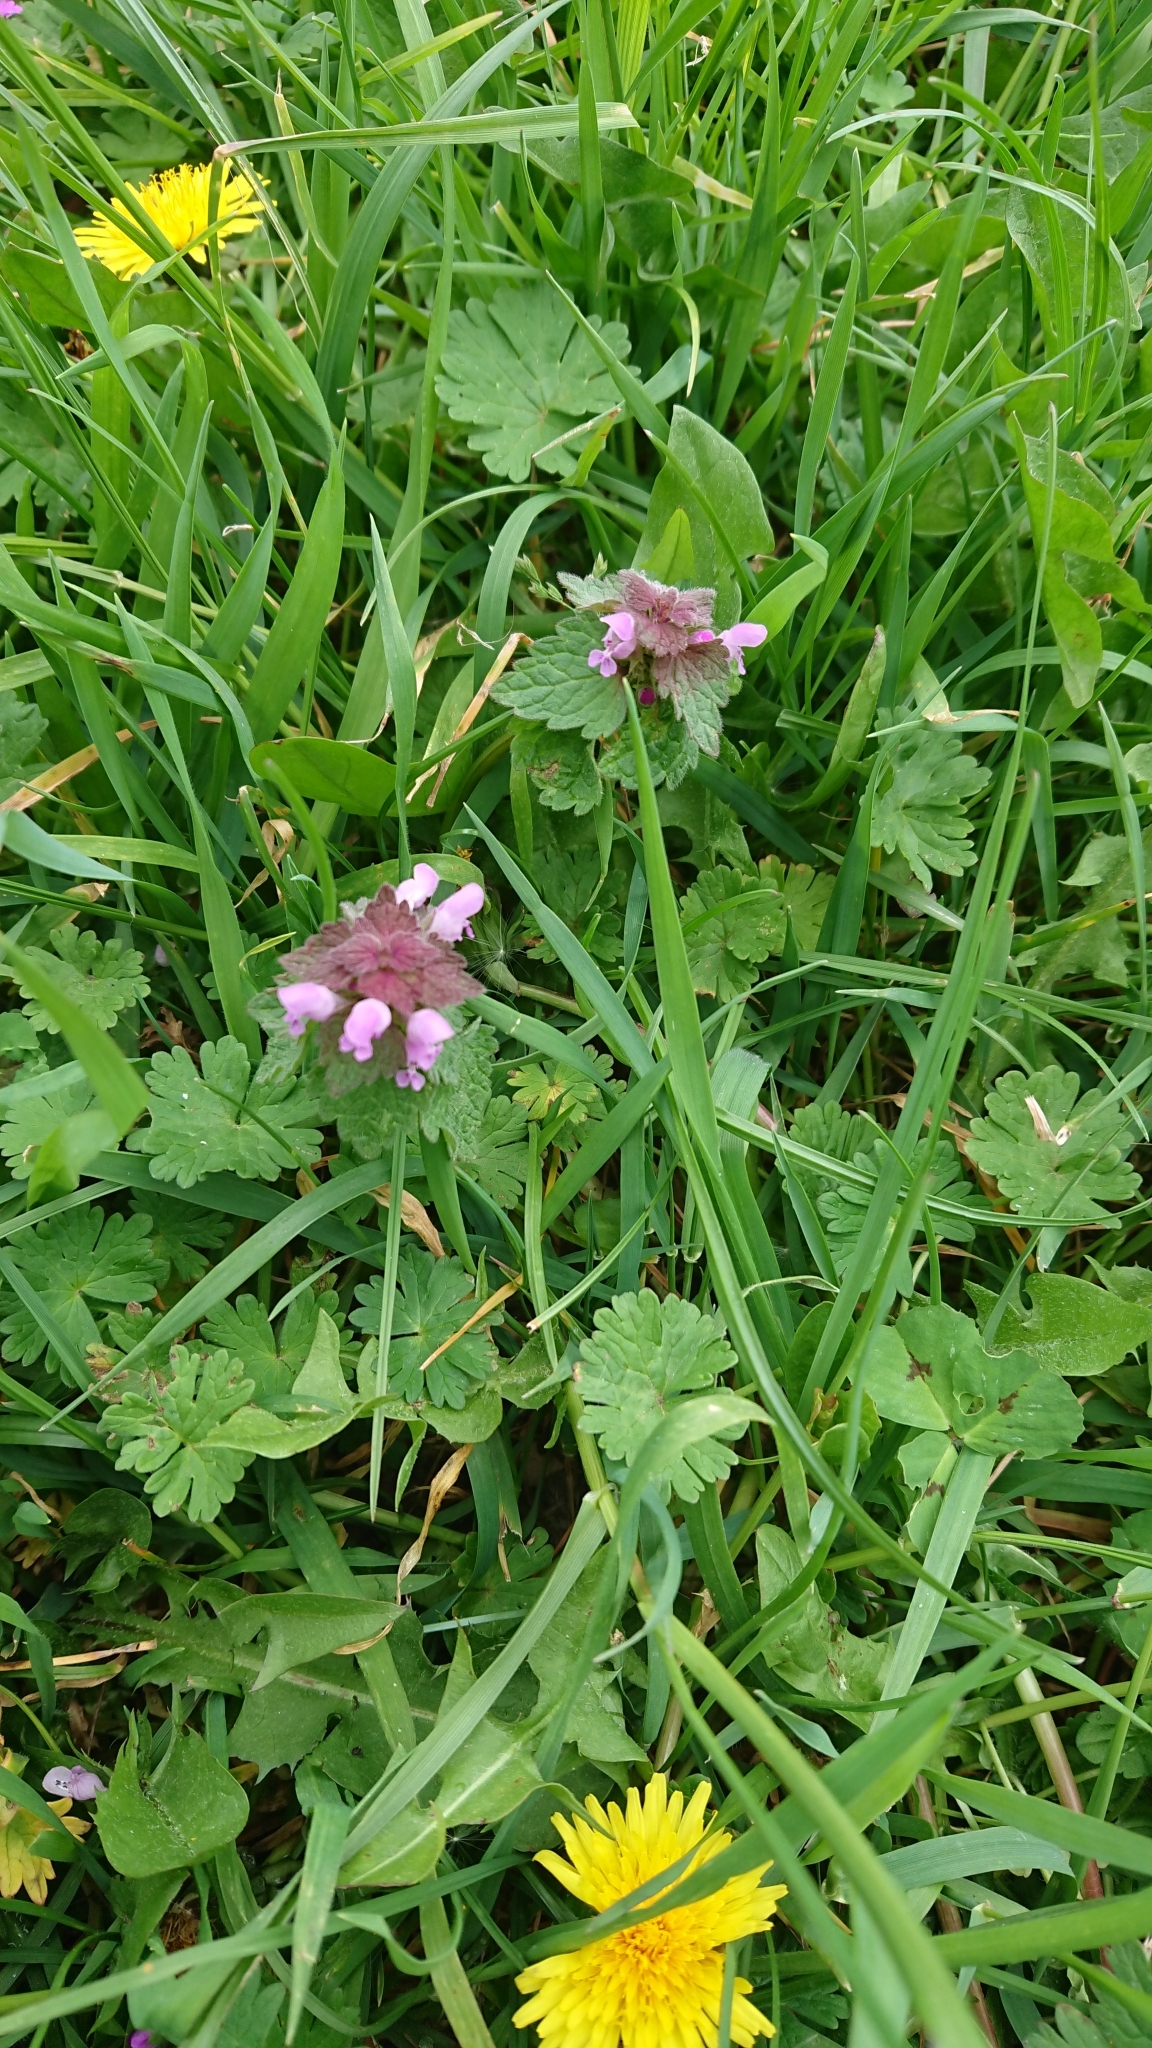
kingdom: Plantae
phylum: Tracheophyta
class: Magnoliopsida
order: Lamiales
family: Lamiaceae
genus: Lamium
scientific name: Lamium purpureum
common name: Red dead-nettle
